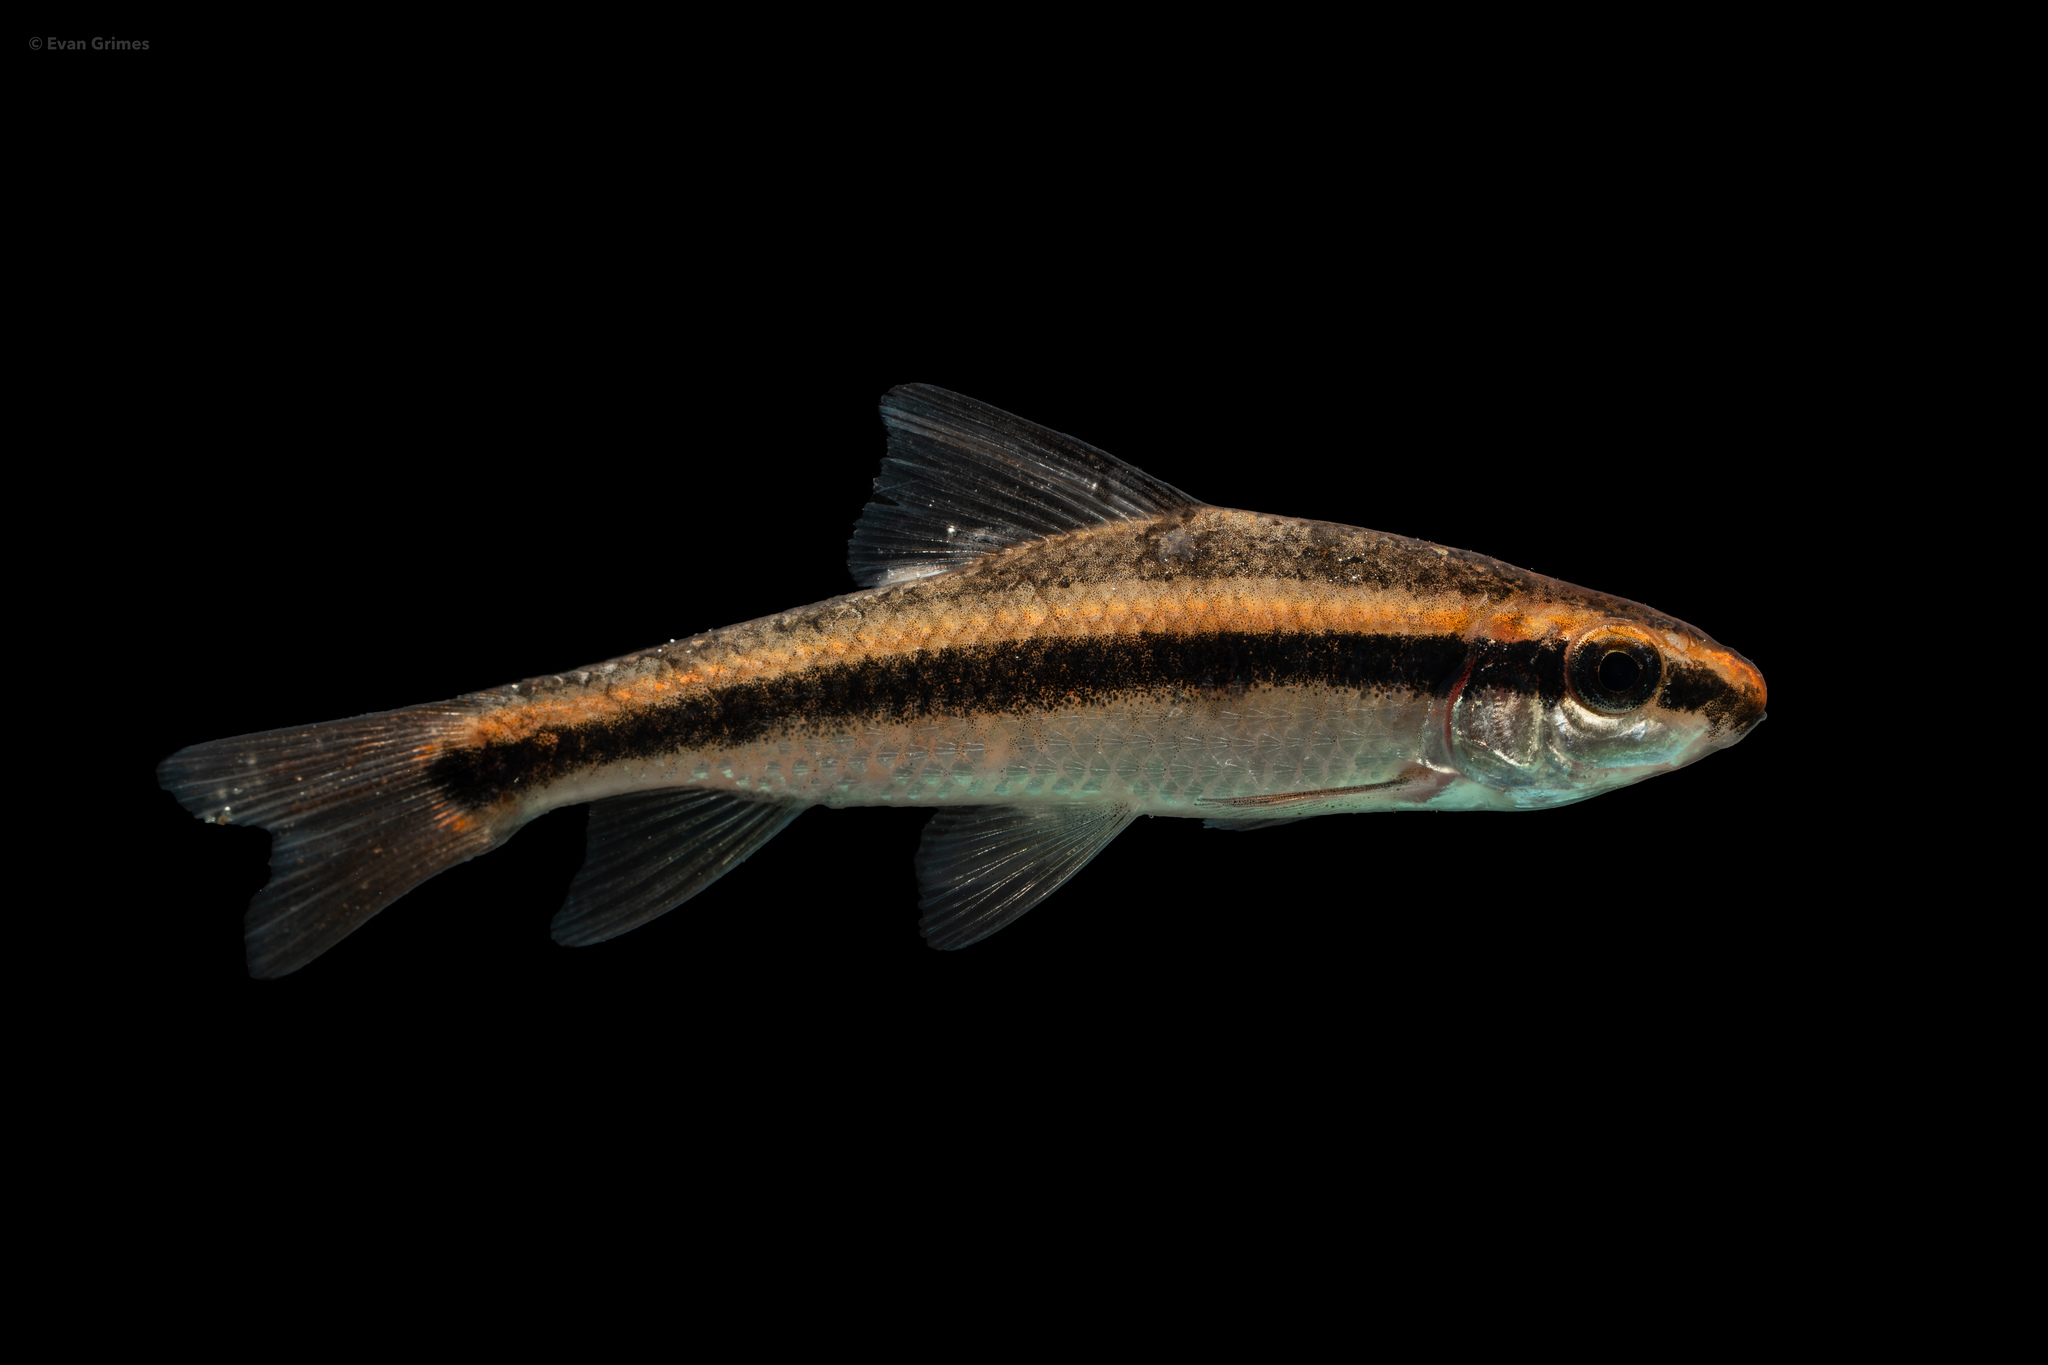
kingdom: Animalia
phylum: Chordata
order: Cypriniformes
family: Catostomidae
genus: Erimyzon
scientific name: Erimyzon tenuis
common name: Sharpfin chubsucker
